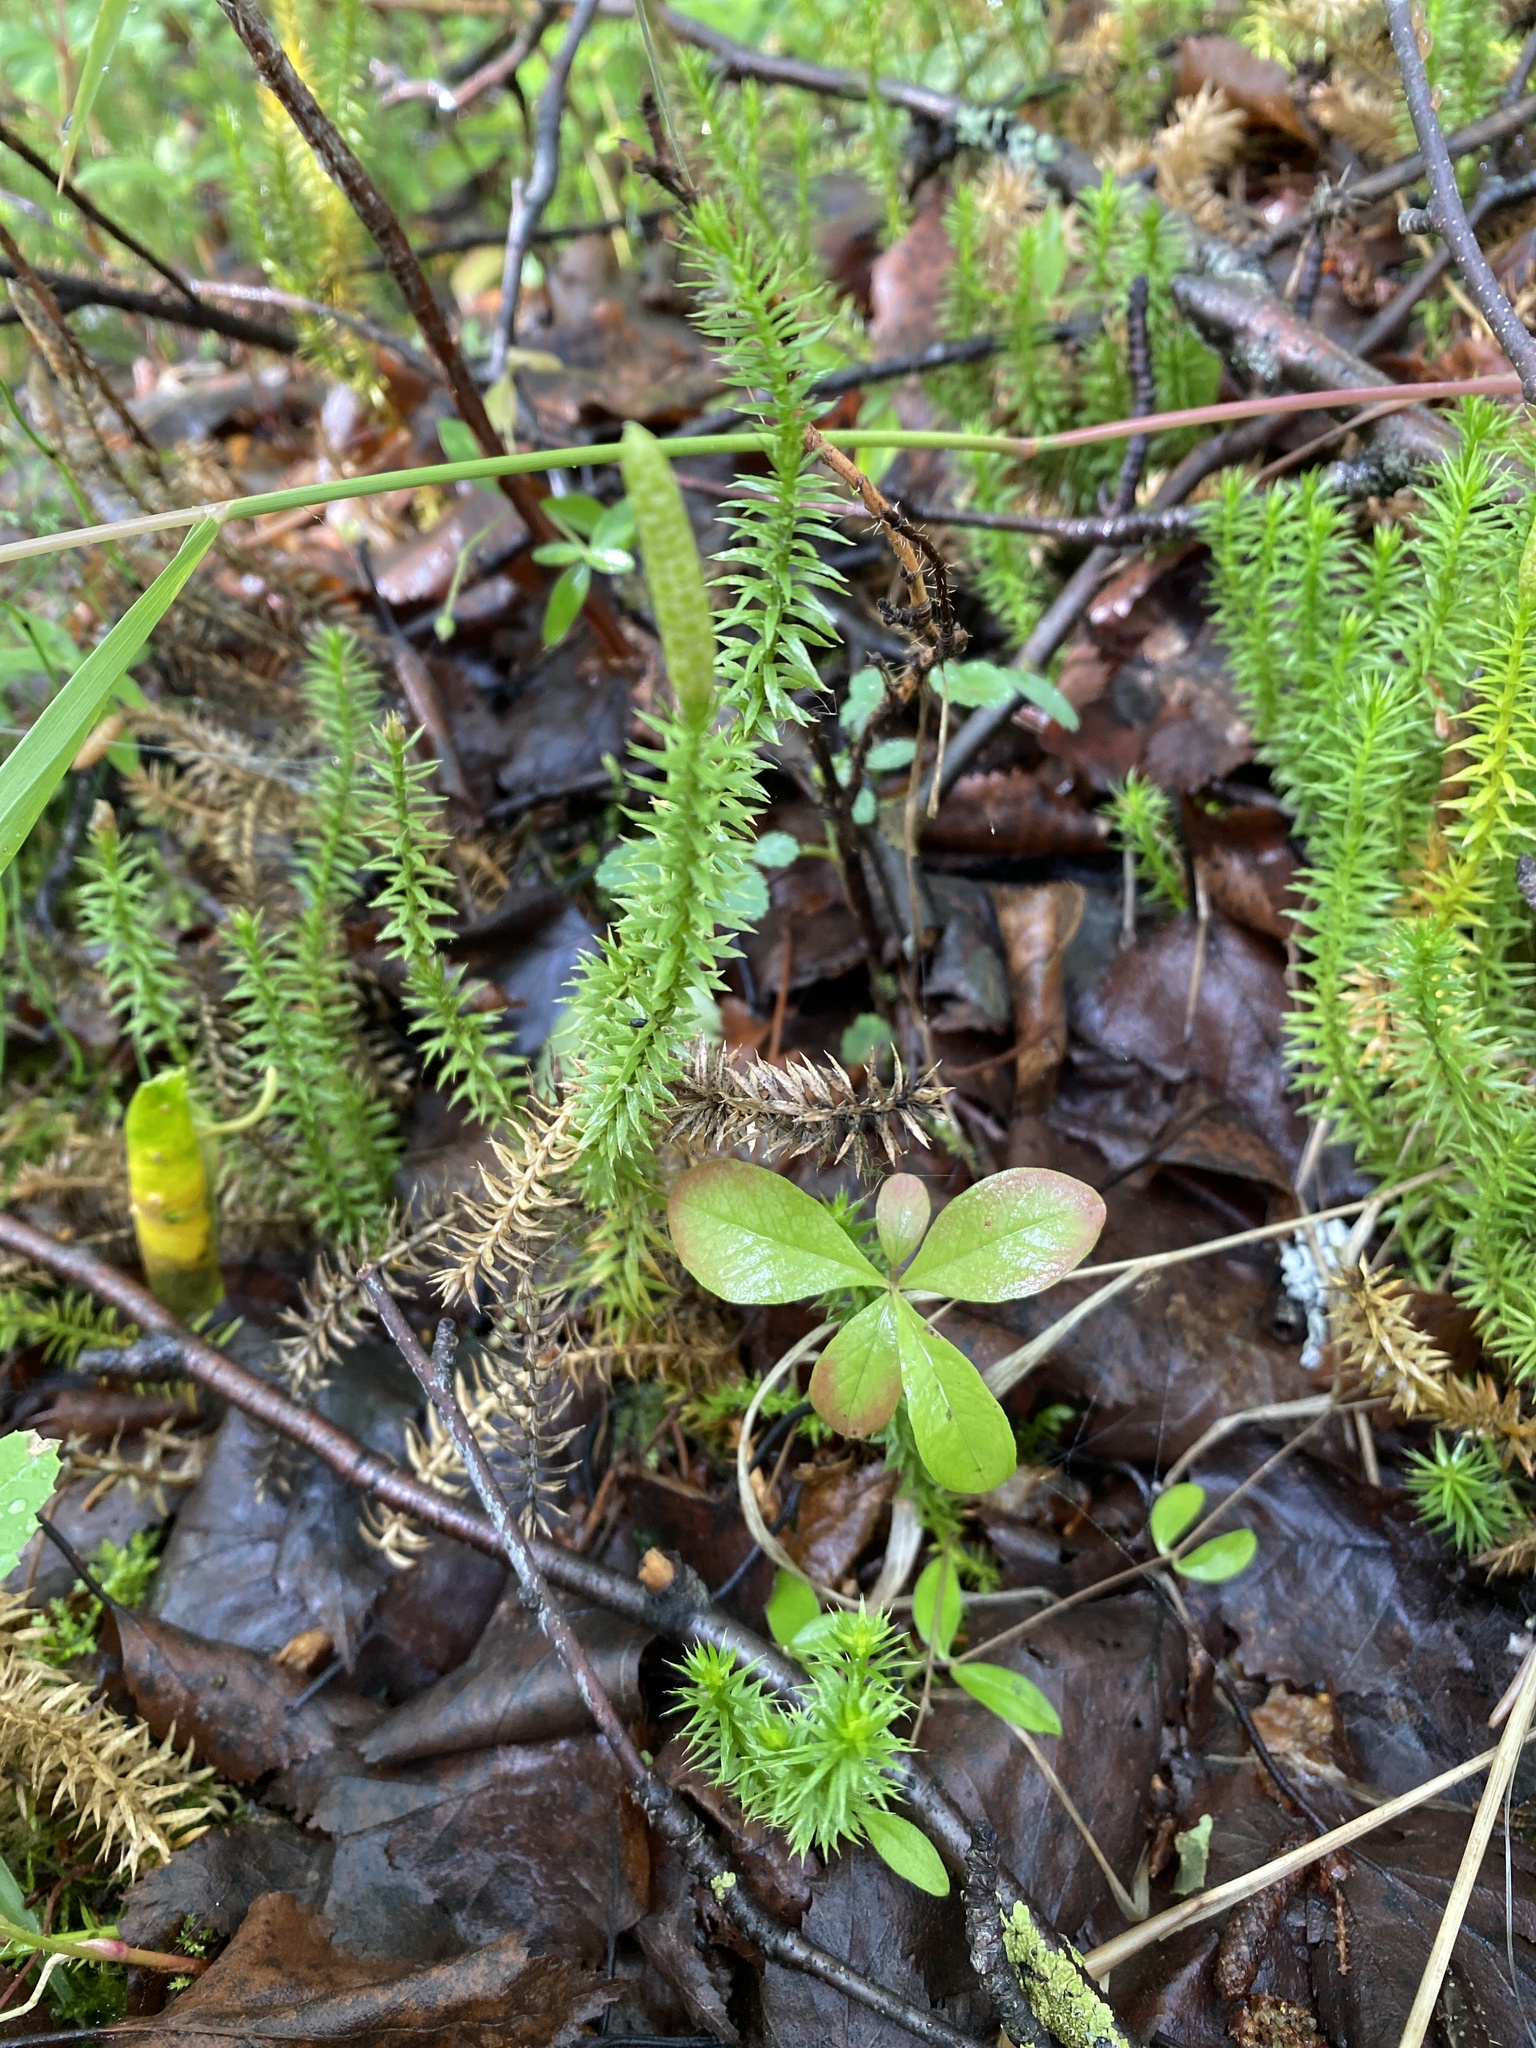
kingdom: Plantae
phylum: Tracheophyta
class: Lycopodiopsida
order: Lycopodiales
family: Lycopodiaceae
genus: Spinulum
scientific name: Spinulum annotinum
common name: Interrupted club-moss
